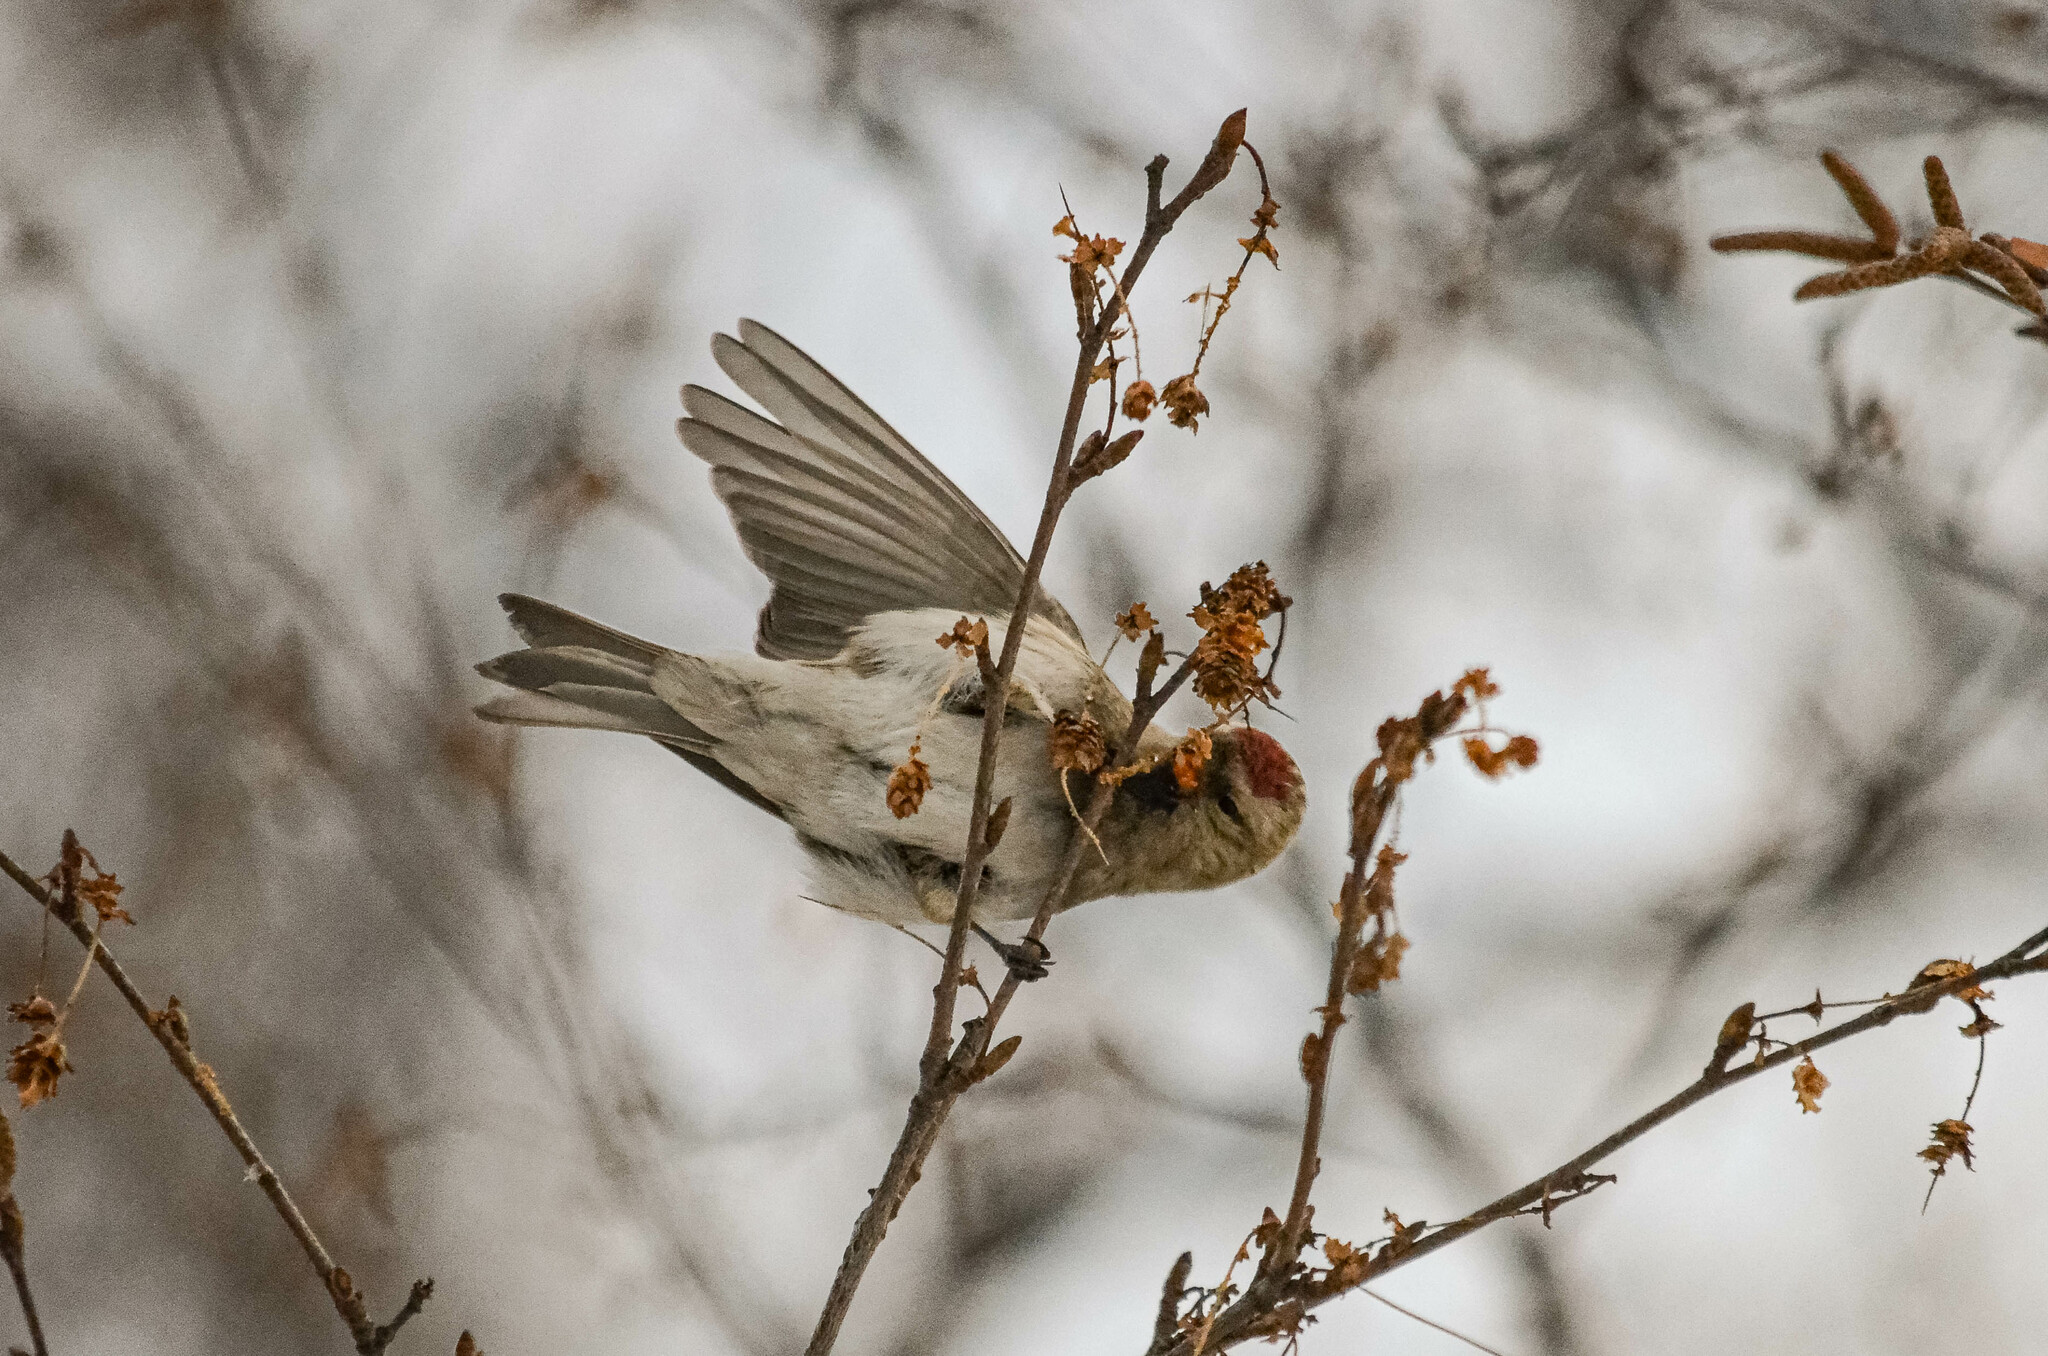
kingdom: Animalia
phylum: Chordata
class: Aves
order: Passeriformes
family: Fringillidae
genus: Acanthis
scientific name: Acanthis flammea
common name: Common redpoll
